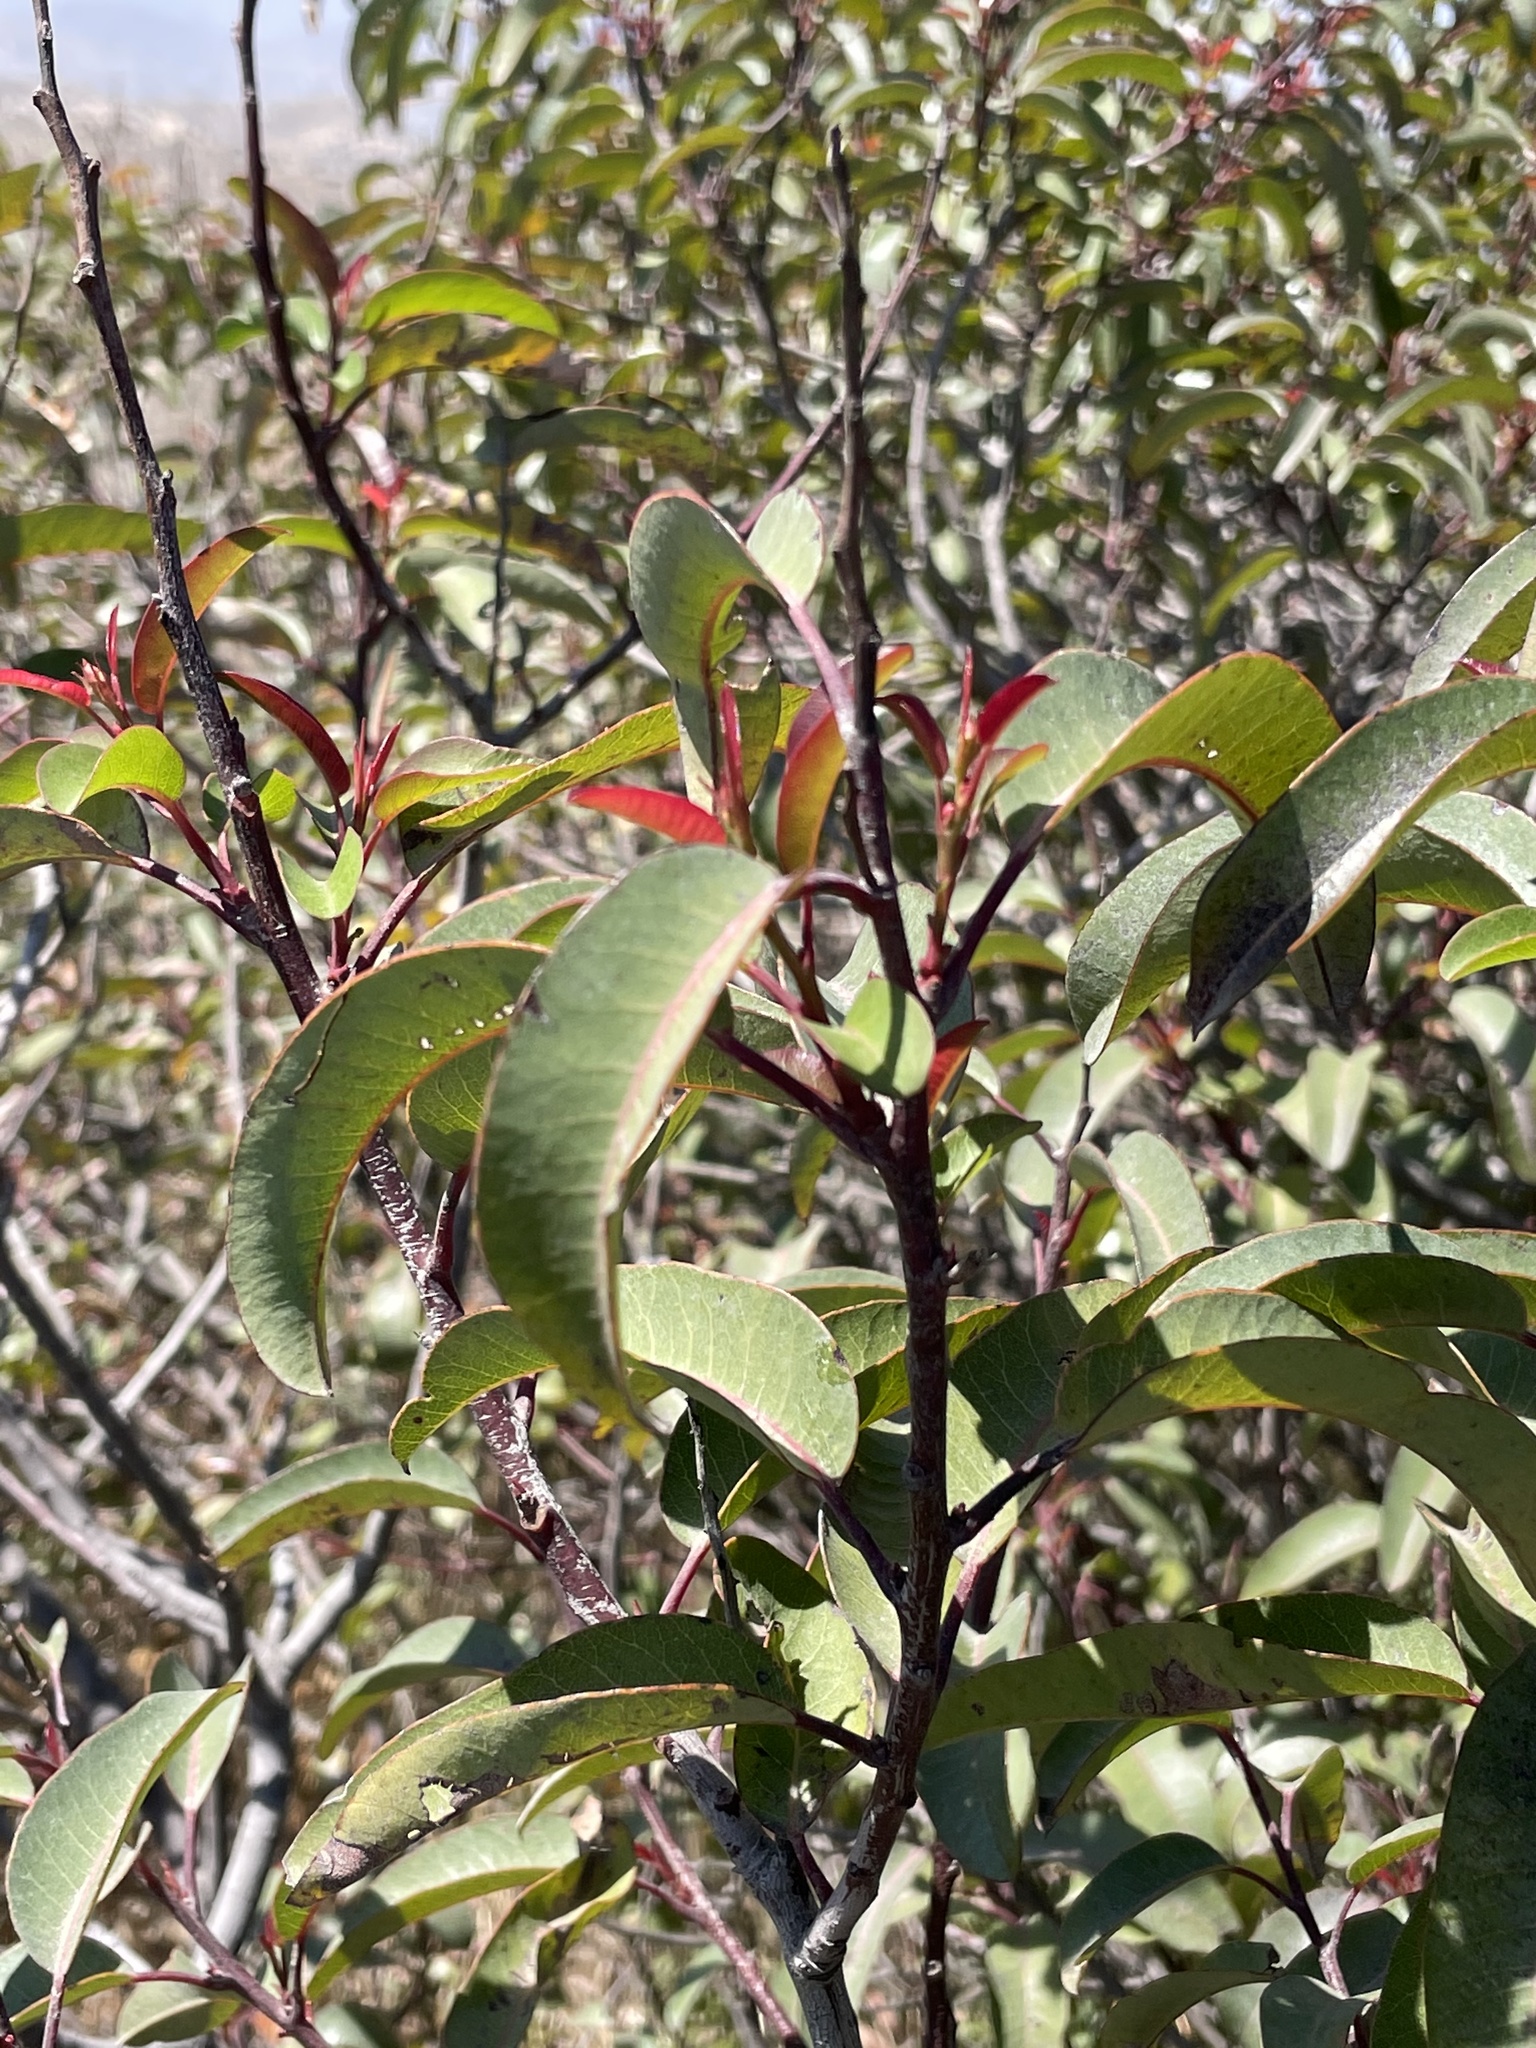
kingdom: Plantae
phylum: Tracheophyta
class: Magnoliopsida
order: Sapindales
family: Anacardiaceae
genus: Malosma
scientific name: Malosma laurina
